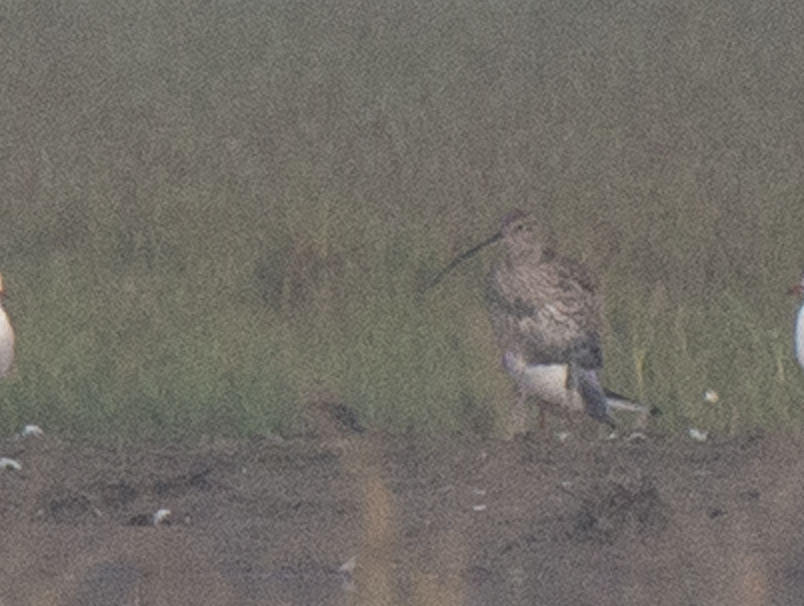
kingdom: Animalia
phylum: Chordata
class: Aves
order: Charadriiformes
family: Scolopacidae
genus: Numenius
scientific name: Numenius arquata
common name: Eurasian curlew
